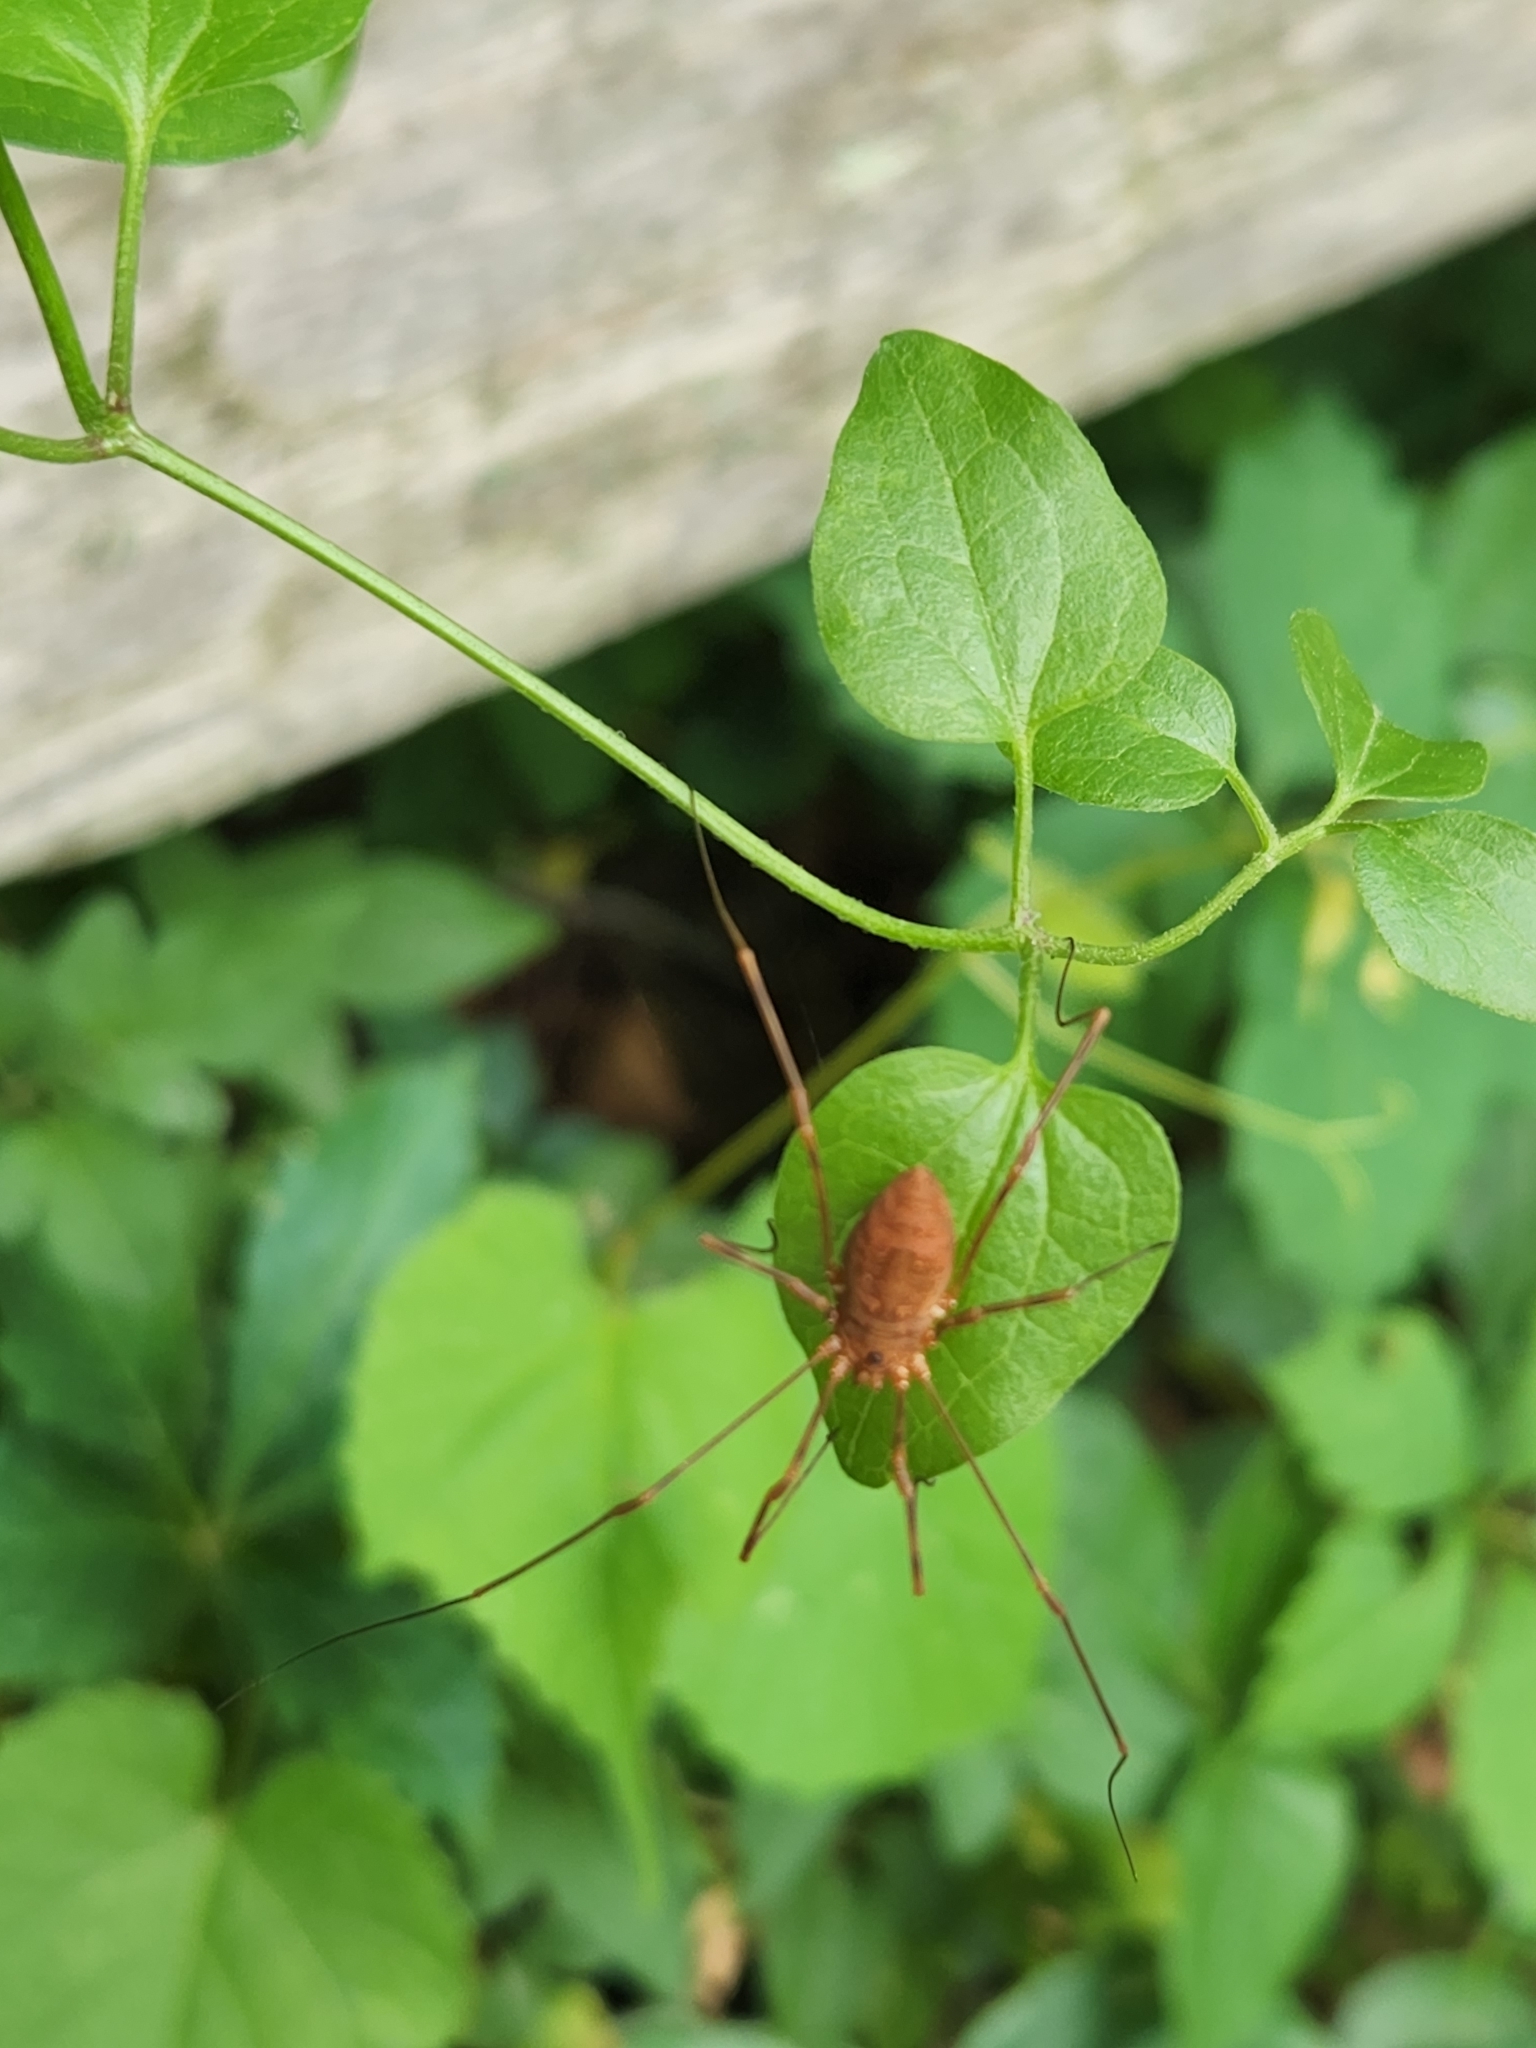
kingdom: Animalia
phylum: Arthropoda
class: Arachnida
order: Opiliones
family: Sclerosomatidae
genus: Leiobunum
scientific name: Leiobunum ventricosum
